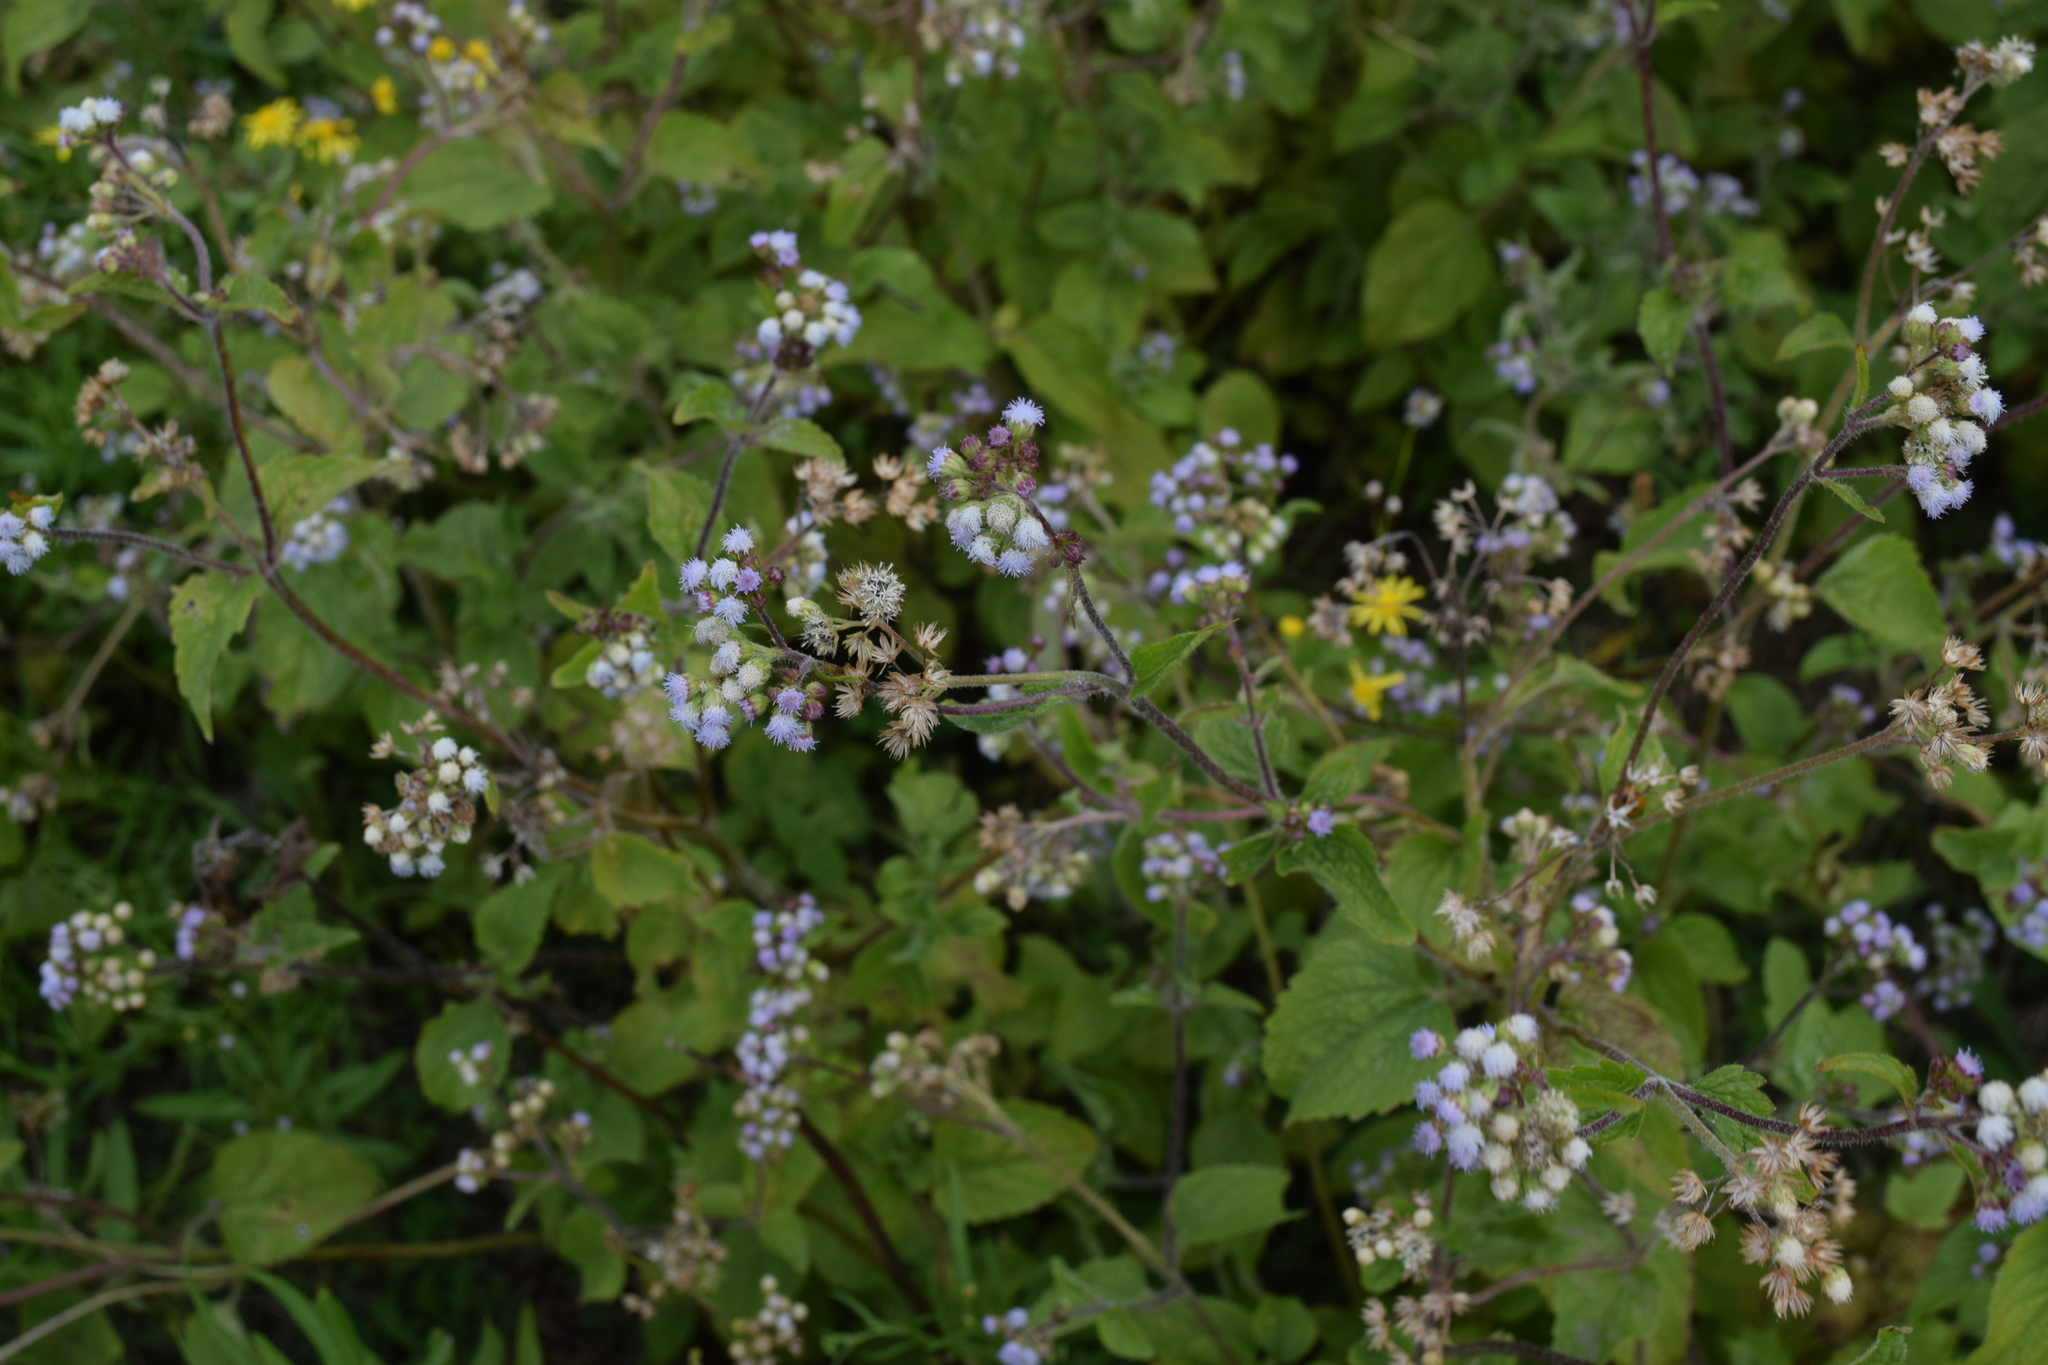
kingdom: Plantae
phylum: Tracheophyta
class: Magnoliopsida
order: Asterales
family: Asteraceae
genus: Ageratum
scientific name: Ageratum conyzoides
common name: Tropical whiteweed
